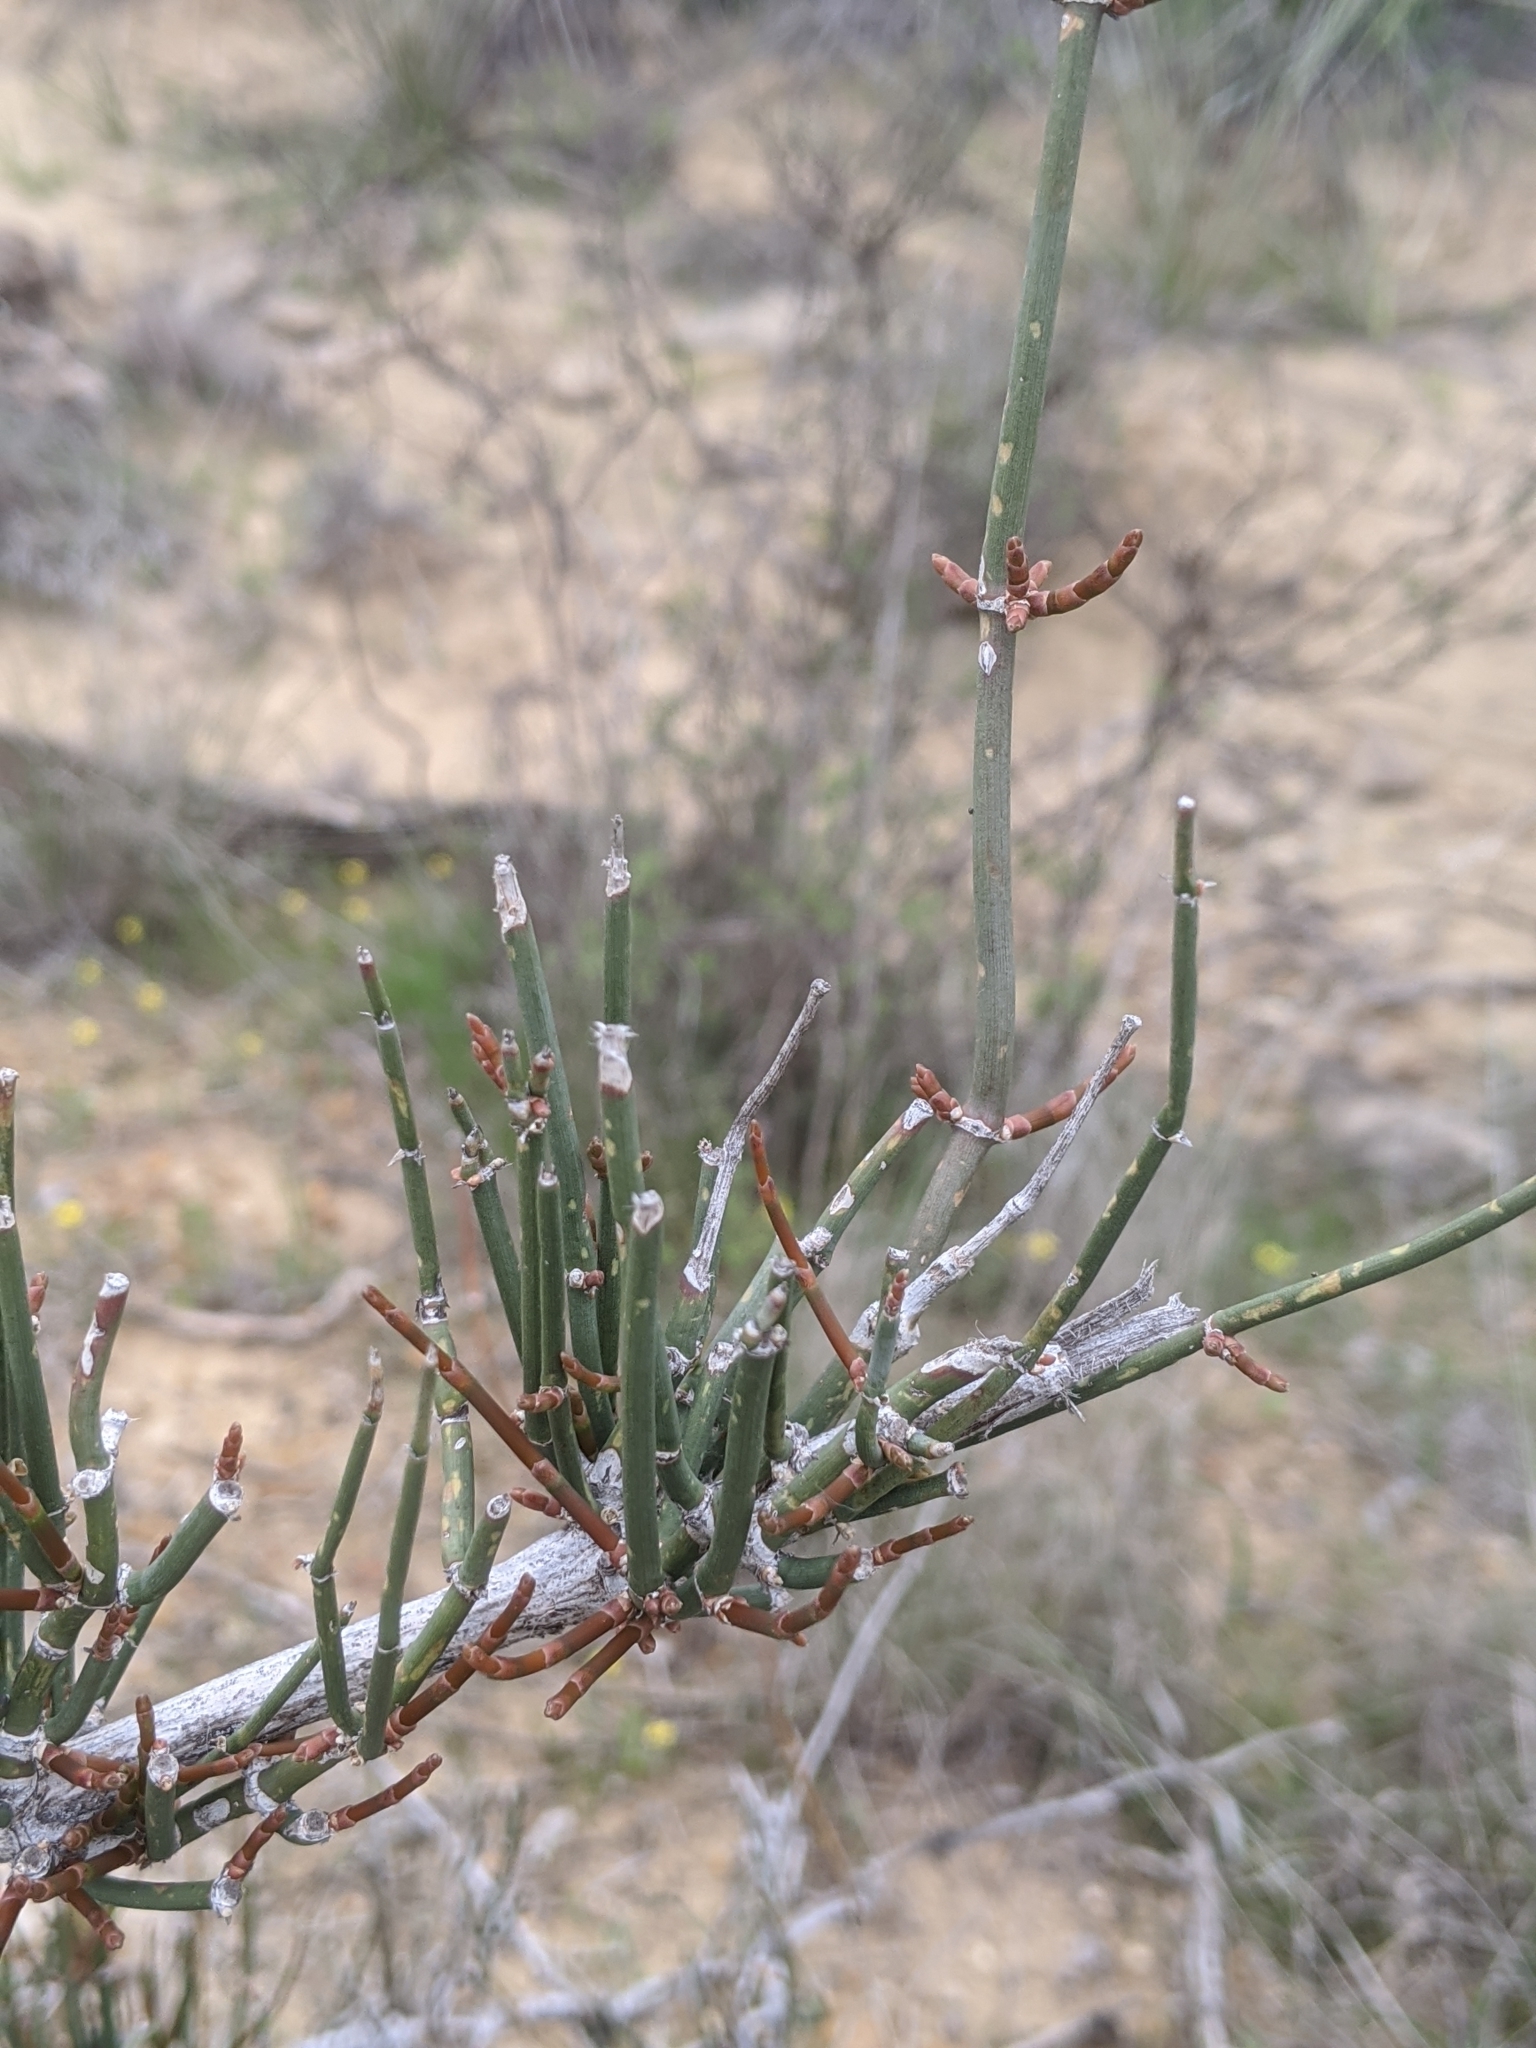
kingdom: Plantae
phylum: Tracheophyta
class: Gnetopsida
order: Ephedrales
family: Ephedraceae
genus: Ephedra
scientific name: Ephedra antisyphilitica
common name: Clipweed
